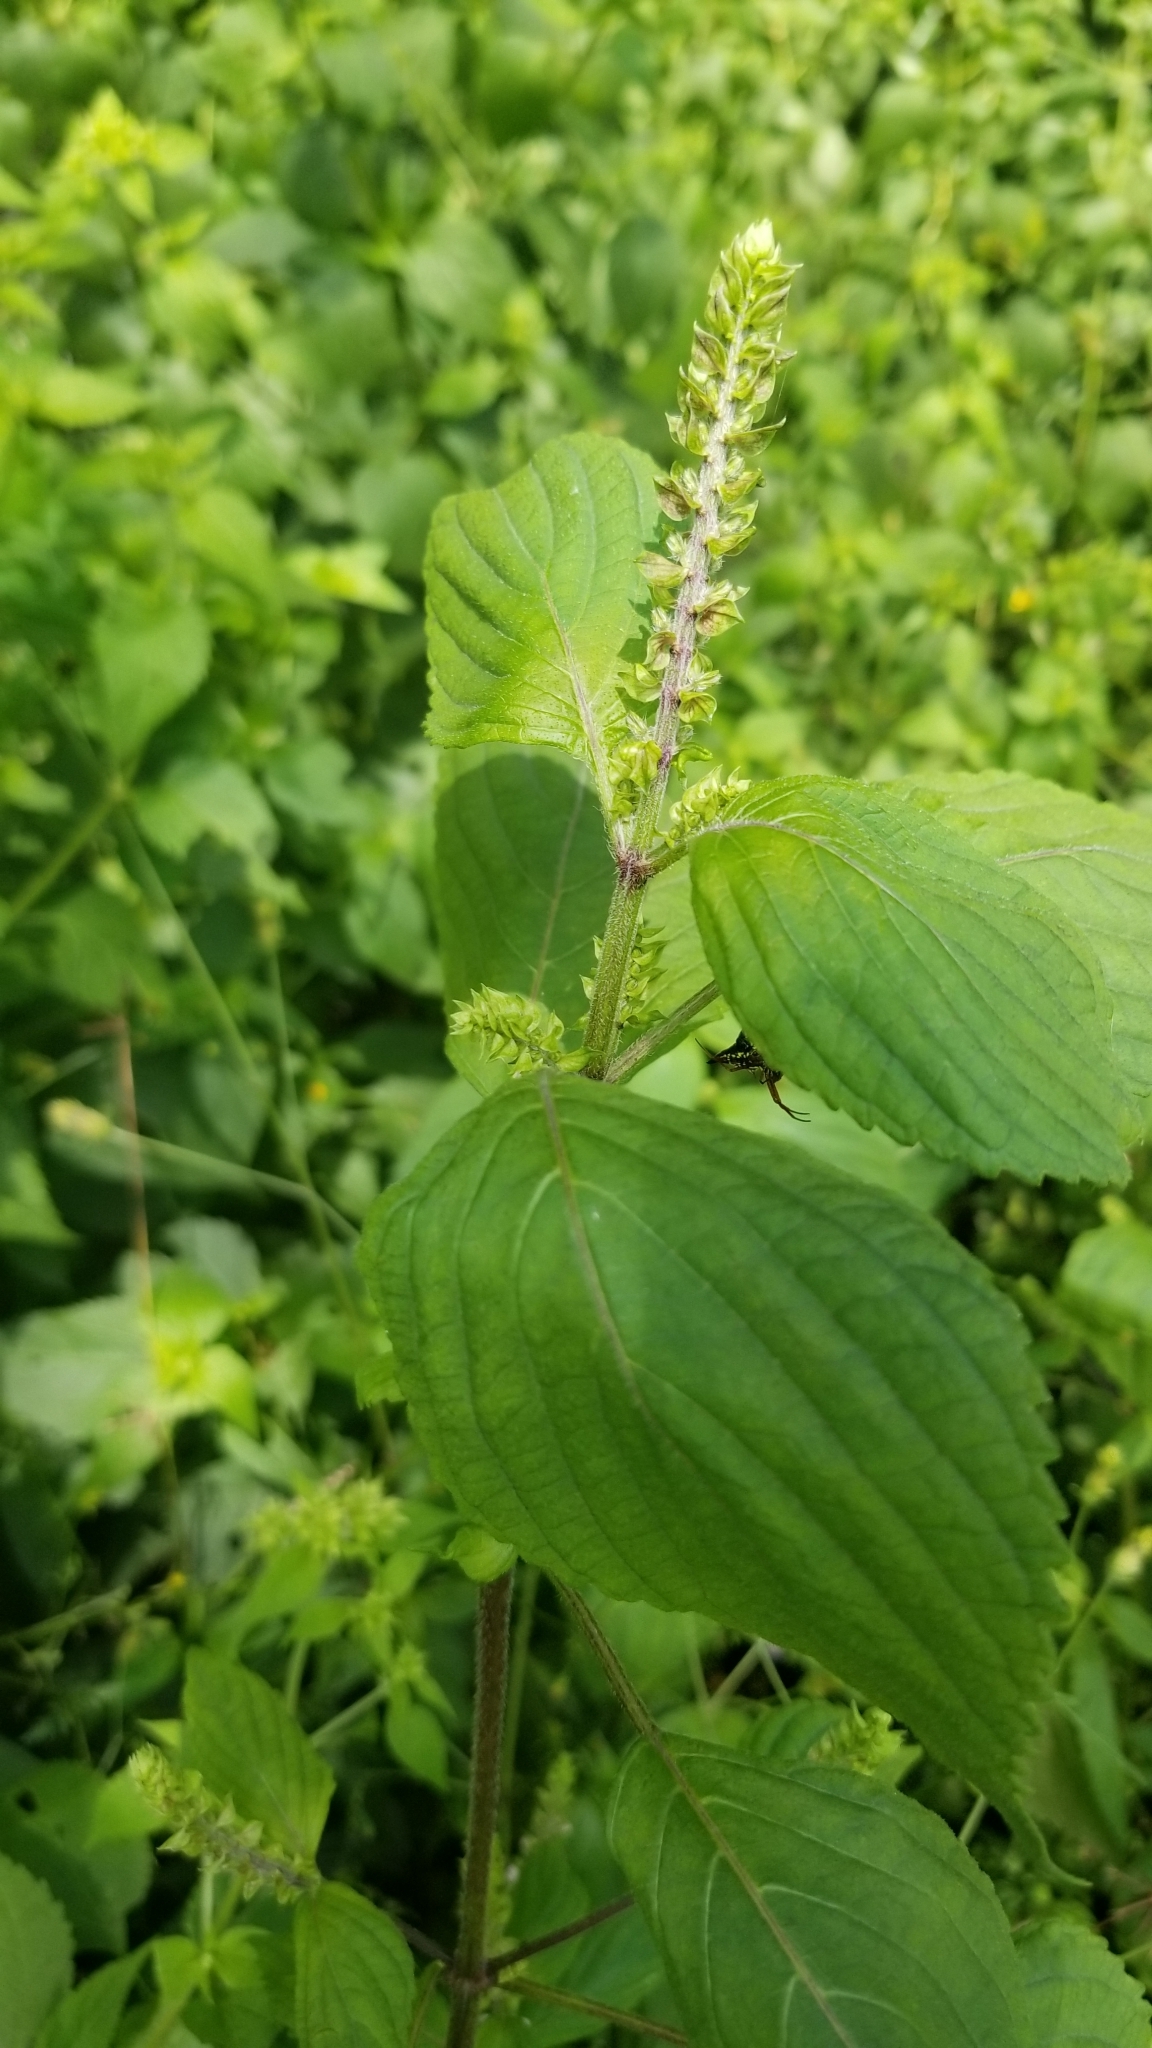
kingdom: Plantae
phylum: Tracheophyta
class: Magnoliopsida
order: Lamiales
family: Lamiaceae
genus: Perilla
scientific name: Perilla frutescens
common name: Perilla
